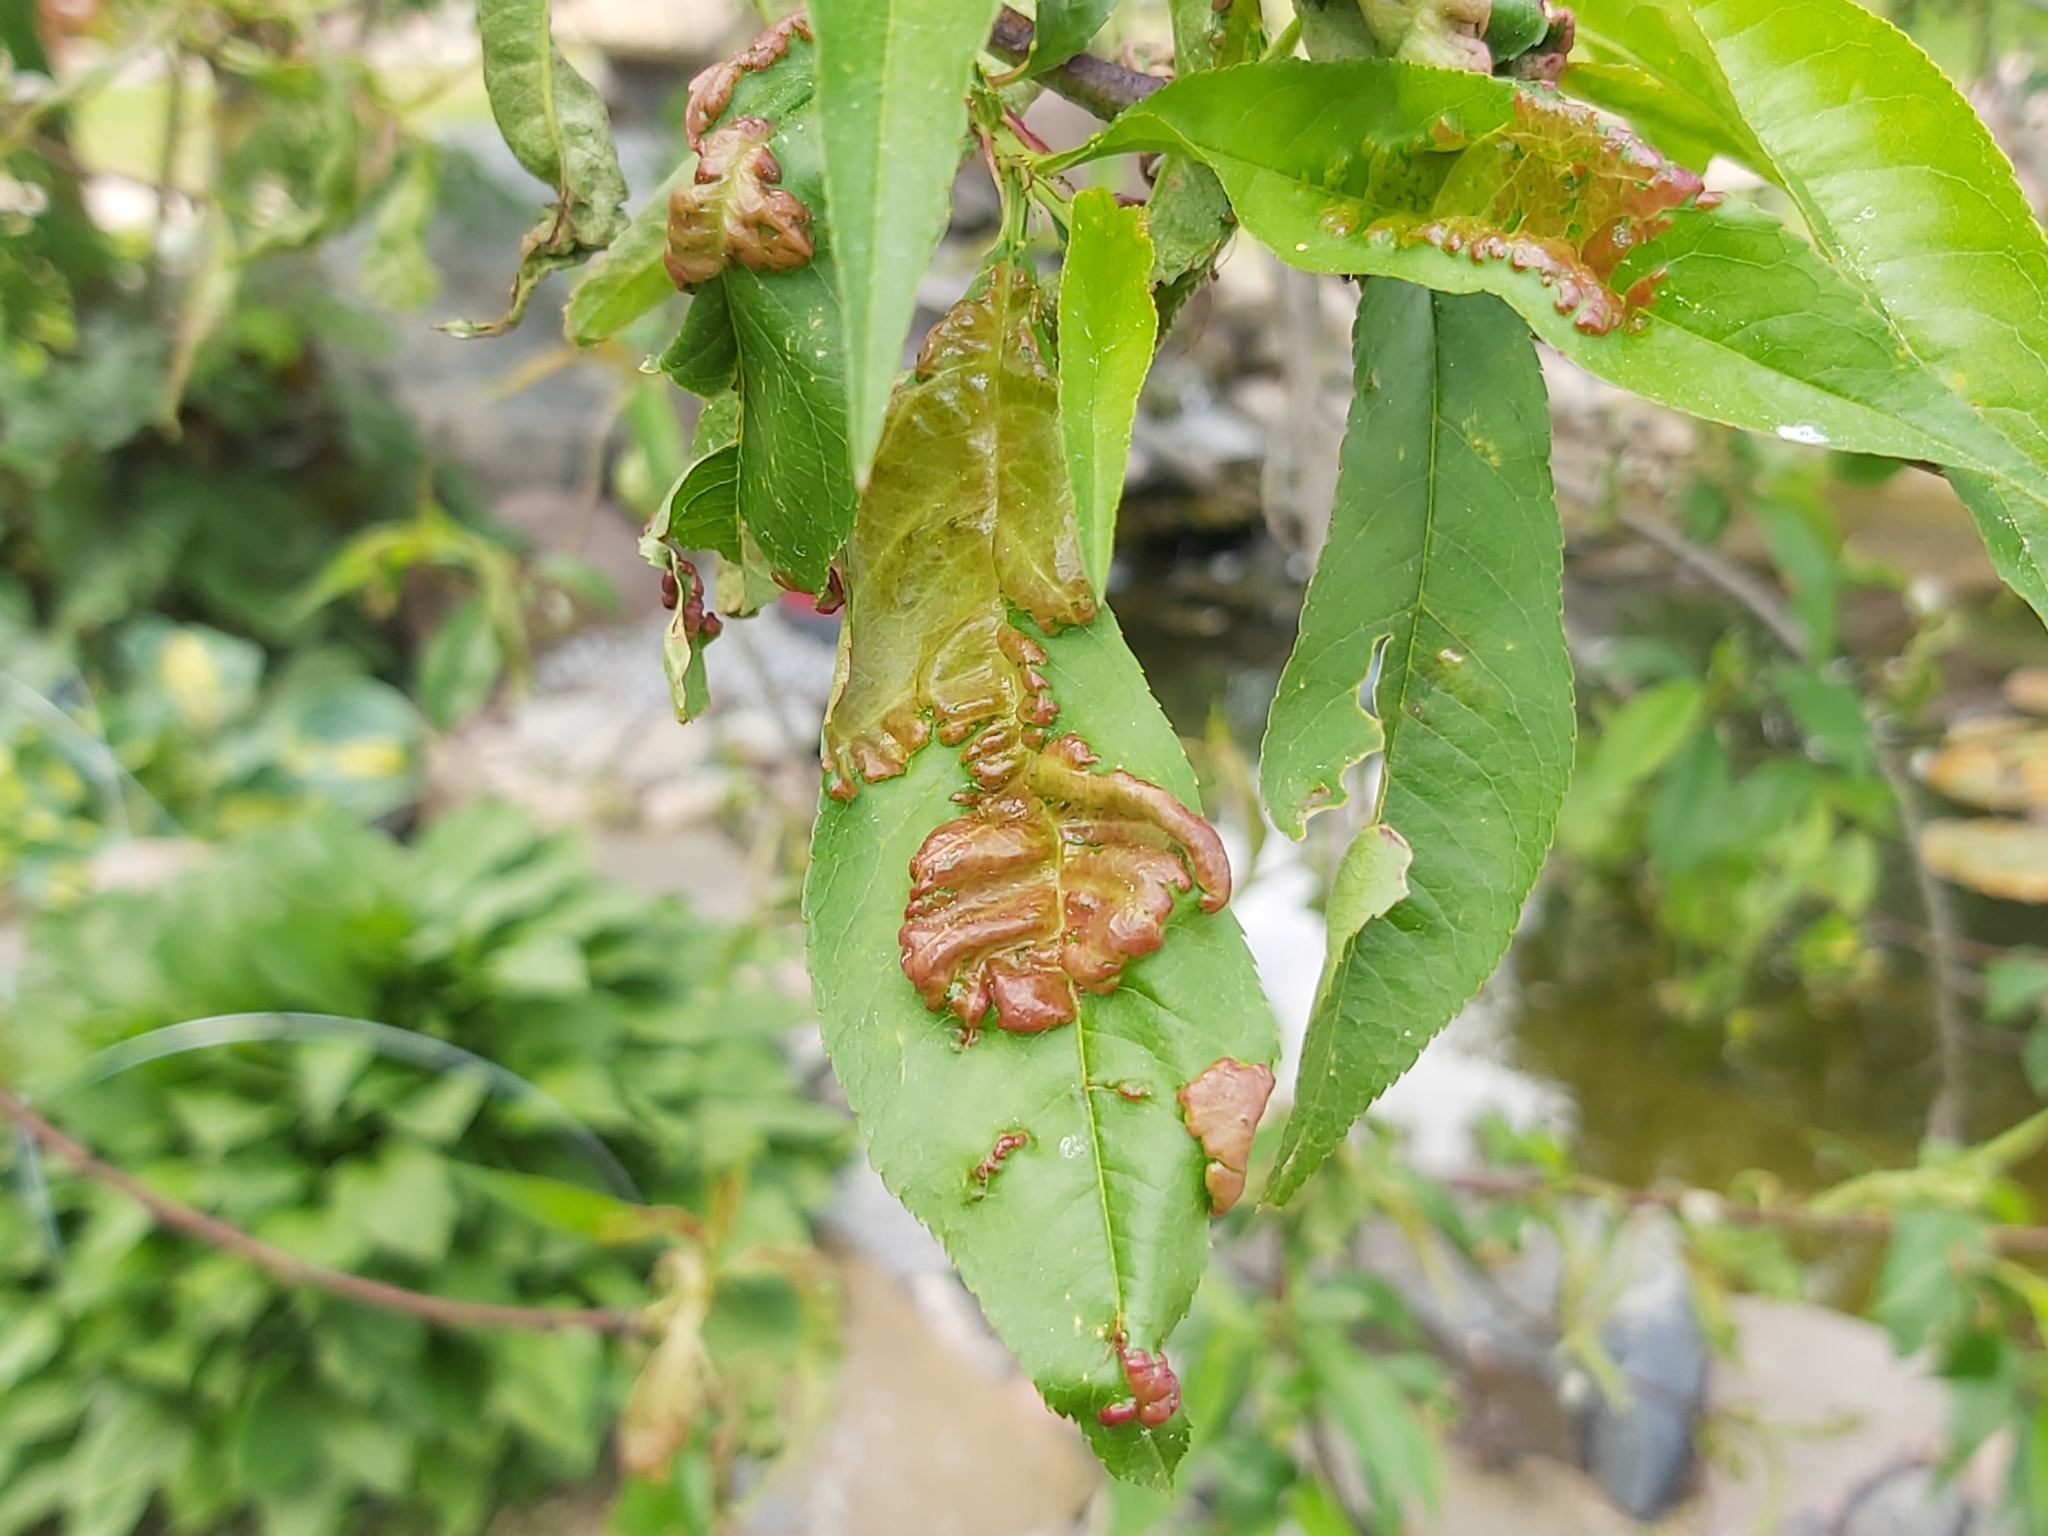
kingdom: Fungi
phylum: Ascomycota
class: Taphrinomycetes
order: Taphrinales
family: Taphrinaceae
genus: Taphrina
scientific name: Taphrina deformans
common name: Peach leaf curl
